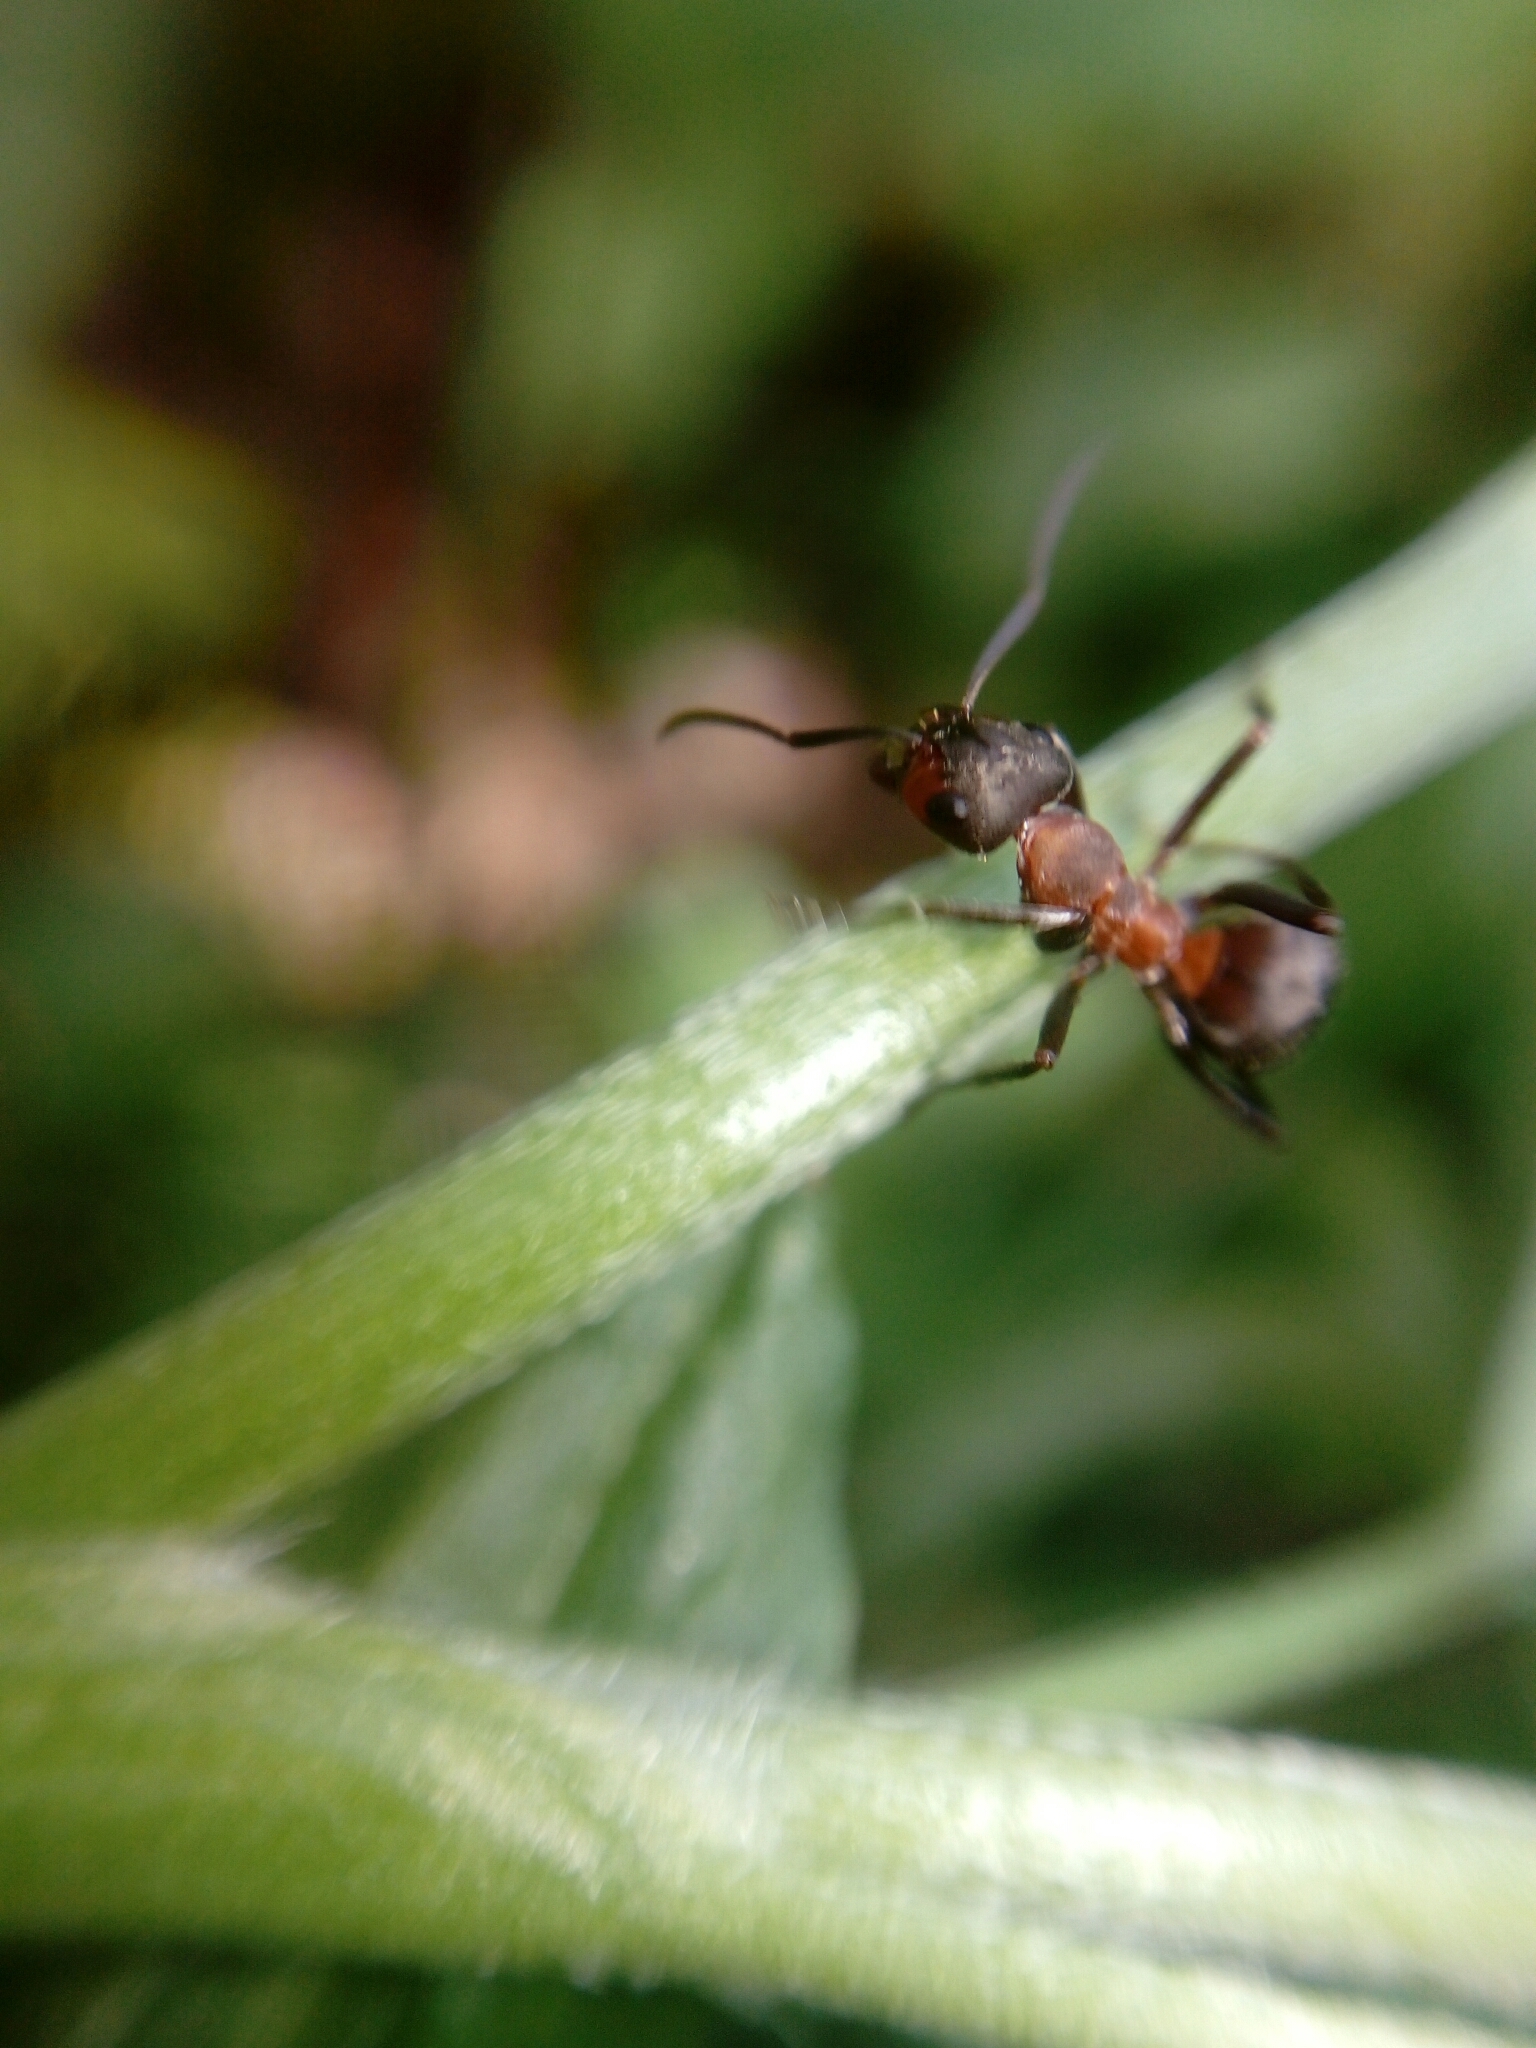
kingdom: Animalia
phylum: Arthropoda
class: Insecta
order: Hymenoptera
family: Formicidae
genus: Formica
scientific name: Formica rufa
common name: Red wood ant
